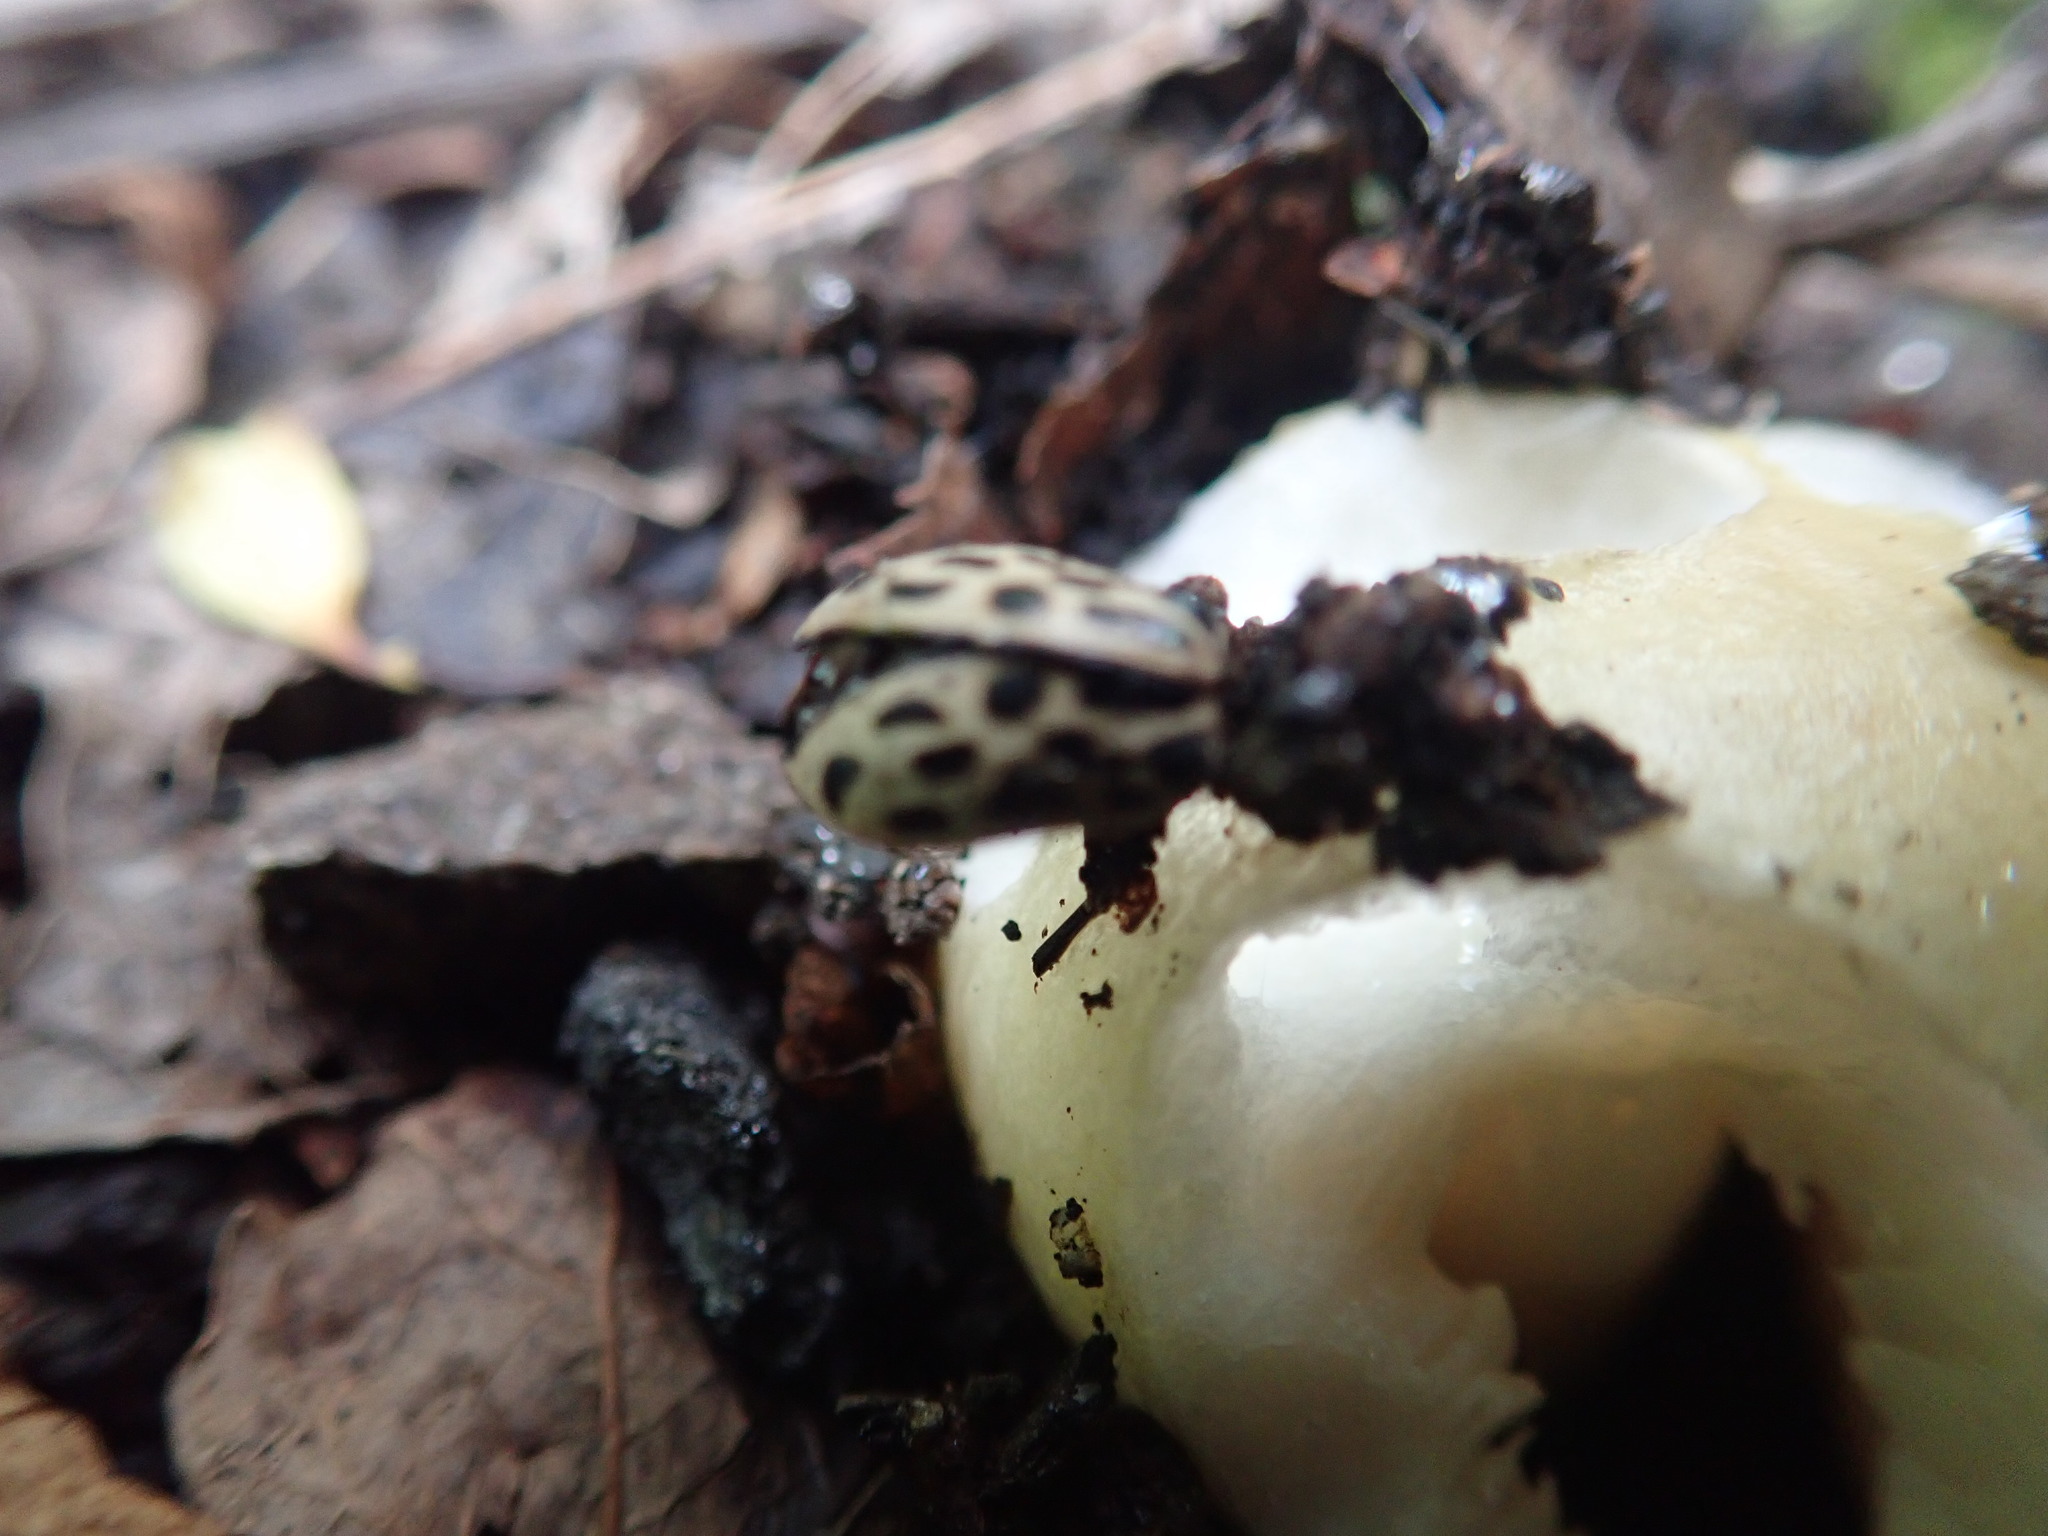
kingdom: Animalia
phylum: Arthropoda
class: Insecta
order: Coleoptera
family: Chrysomelidae
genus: Chrysomela
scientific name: Chrysomela vigintipunctata
